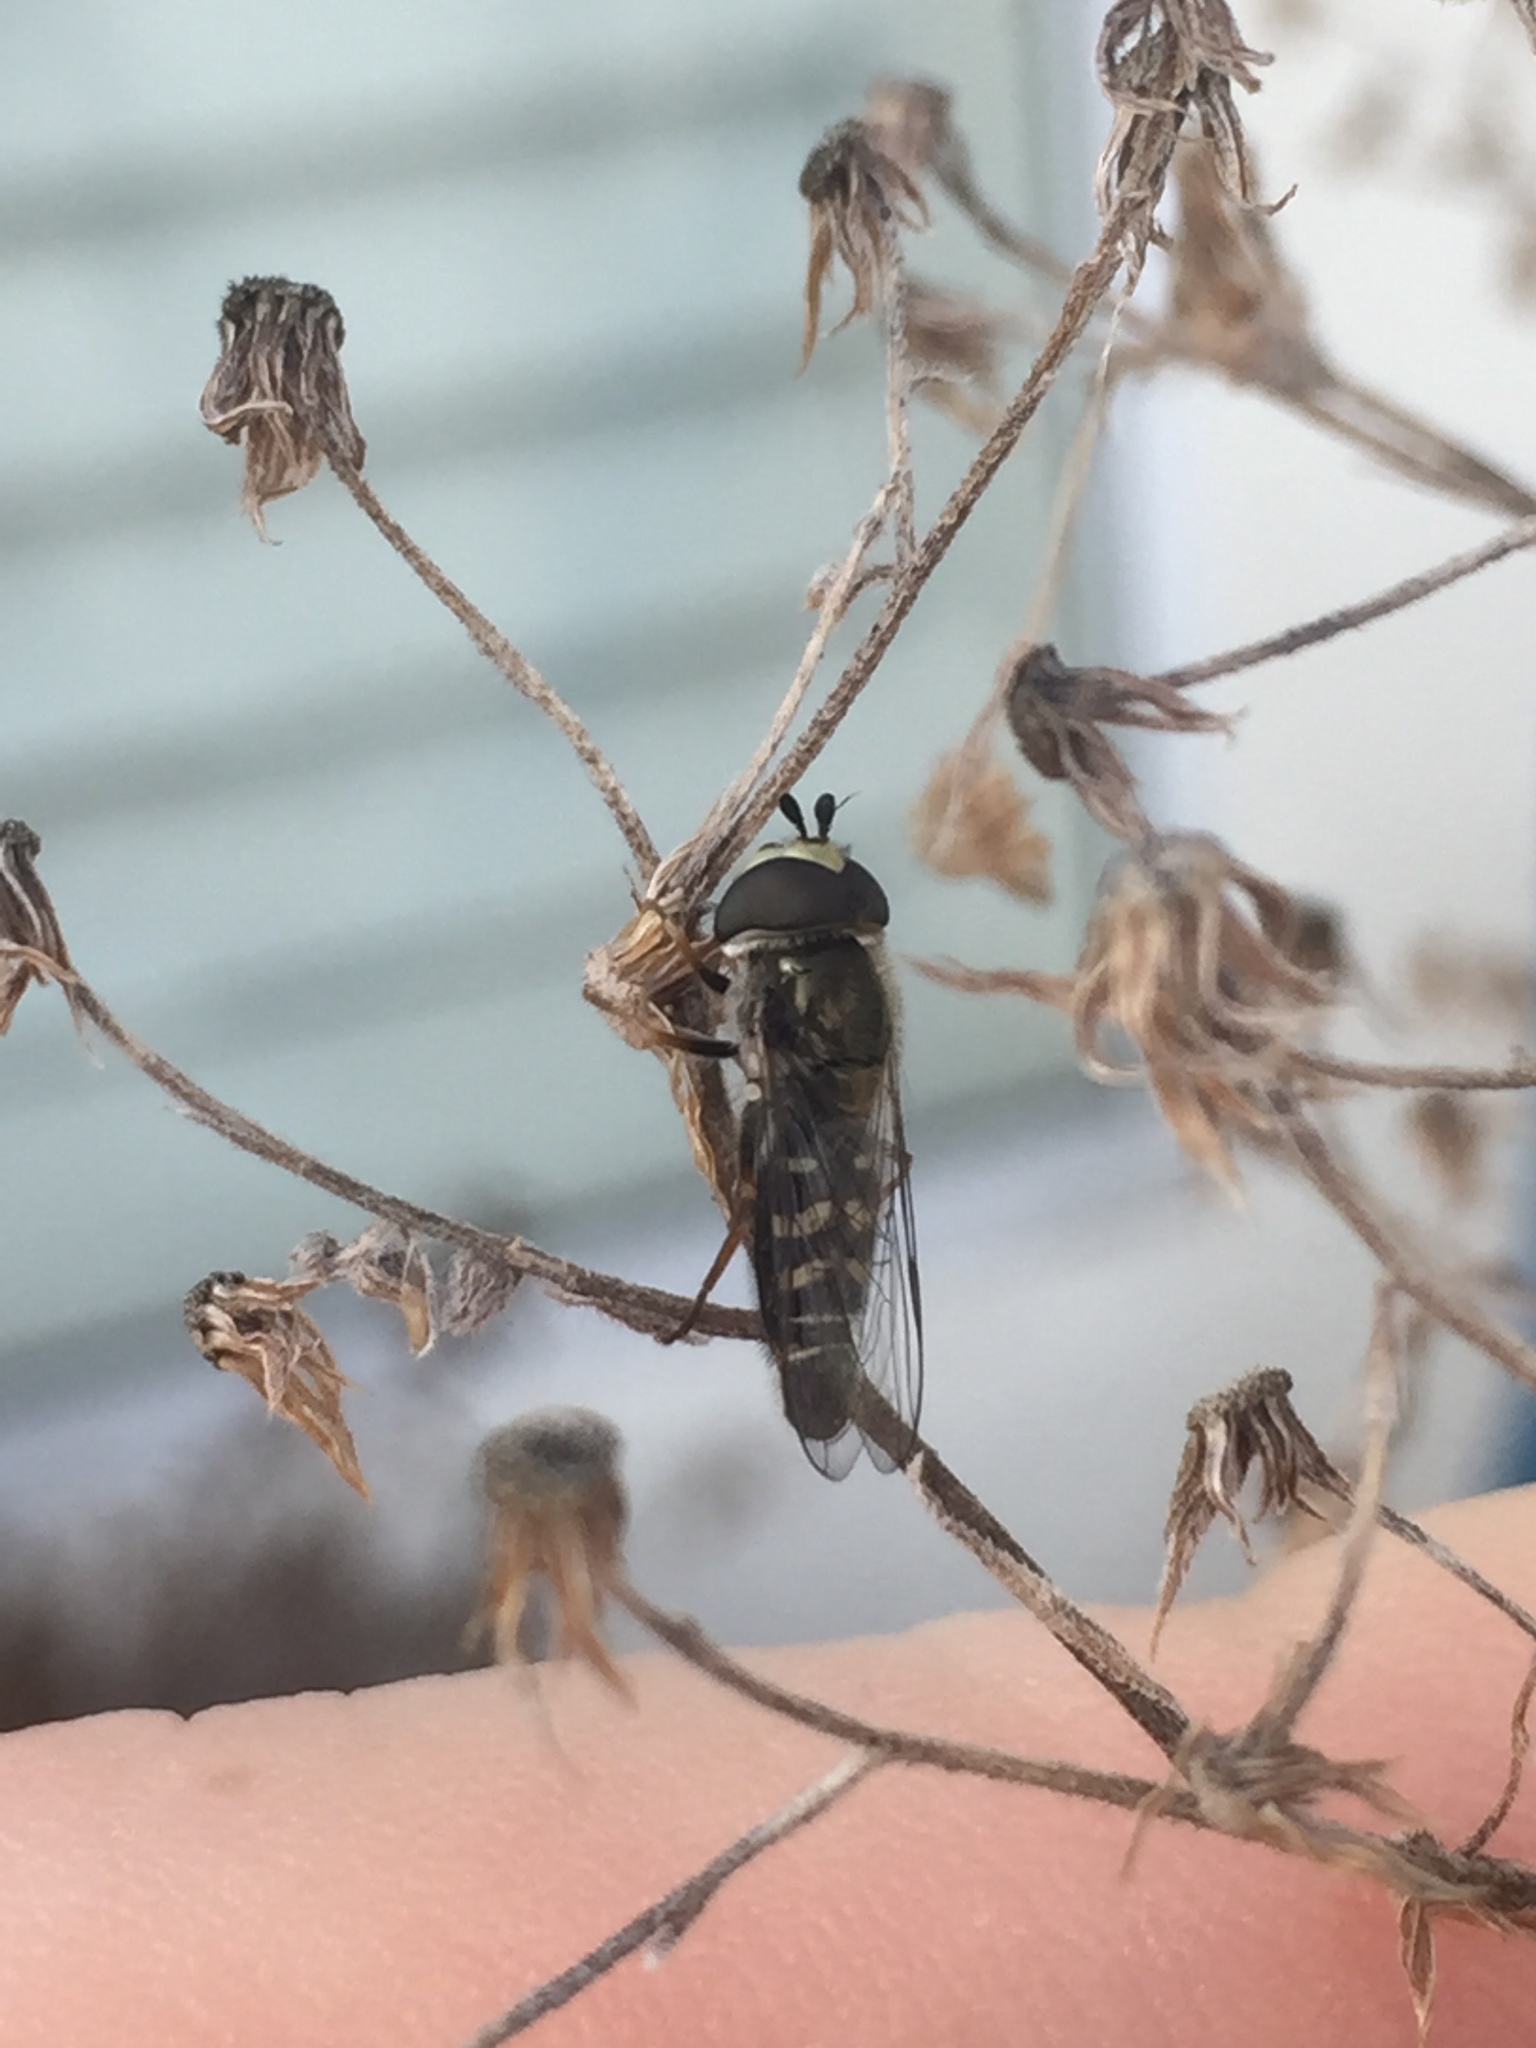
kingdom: Animalia
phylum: Arthropoda
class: Insecta
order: Diptera
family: Syrphidae
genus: Eupeodes
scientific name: Eupeodes volucris
